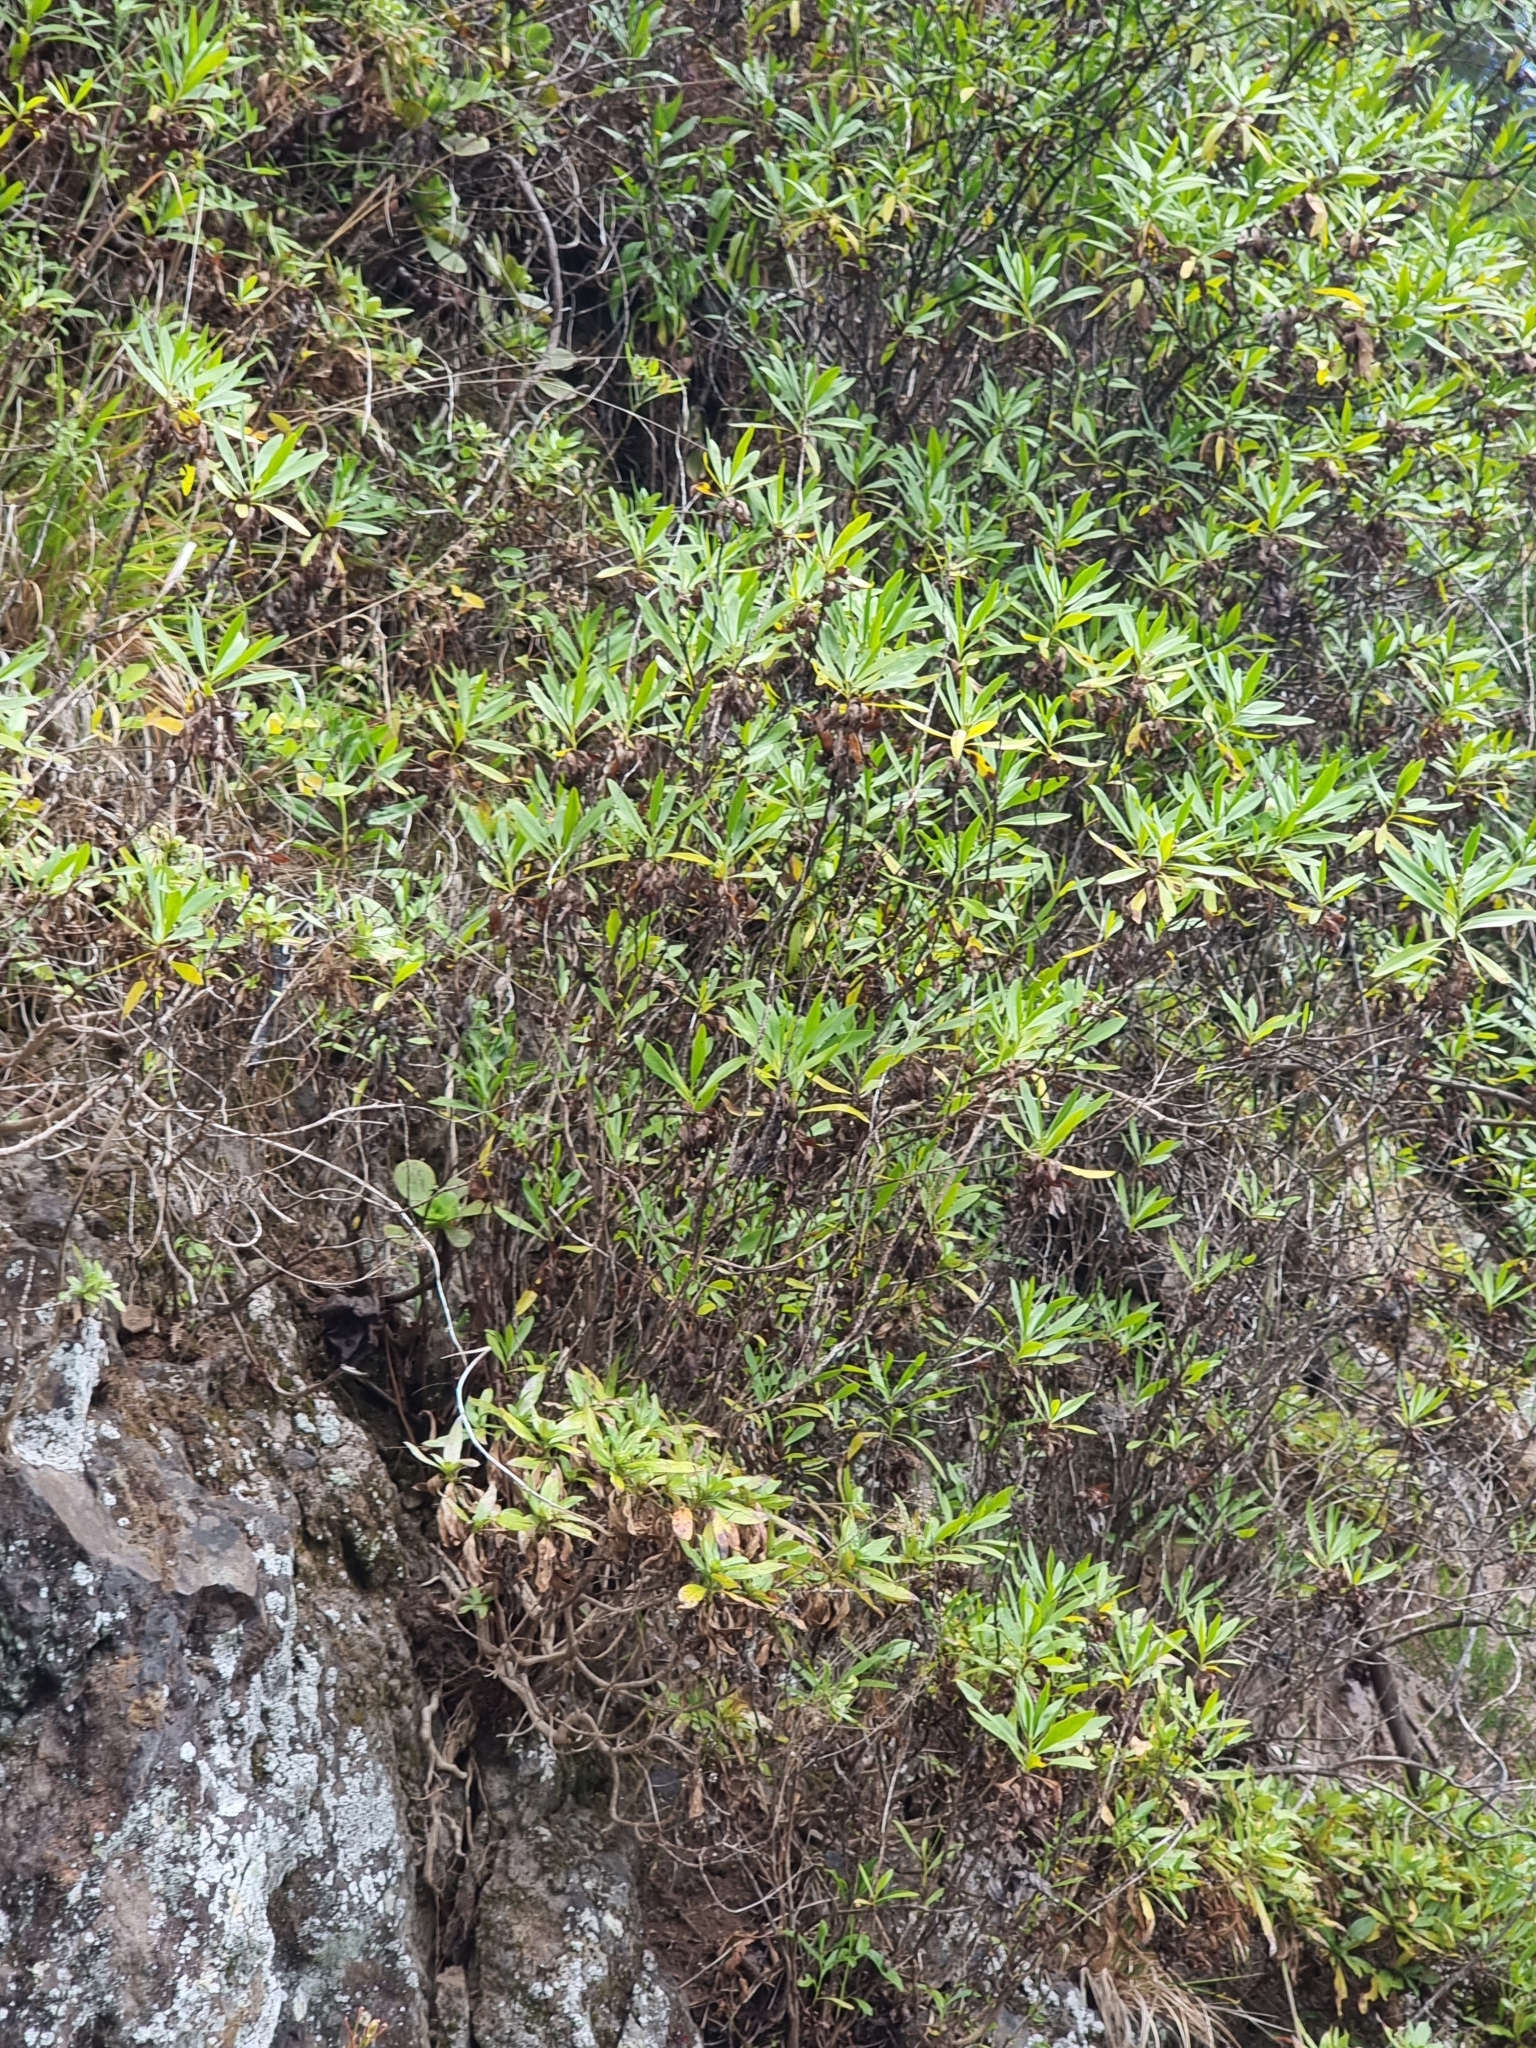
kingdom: Plantae
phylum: Tracheophyta
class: Magnoliopsida
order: Lamiales
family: Plantaginaceae
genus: Globularia
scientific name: Globularia salicina
